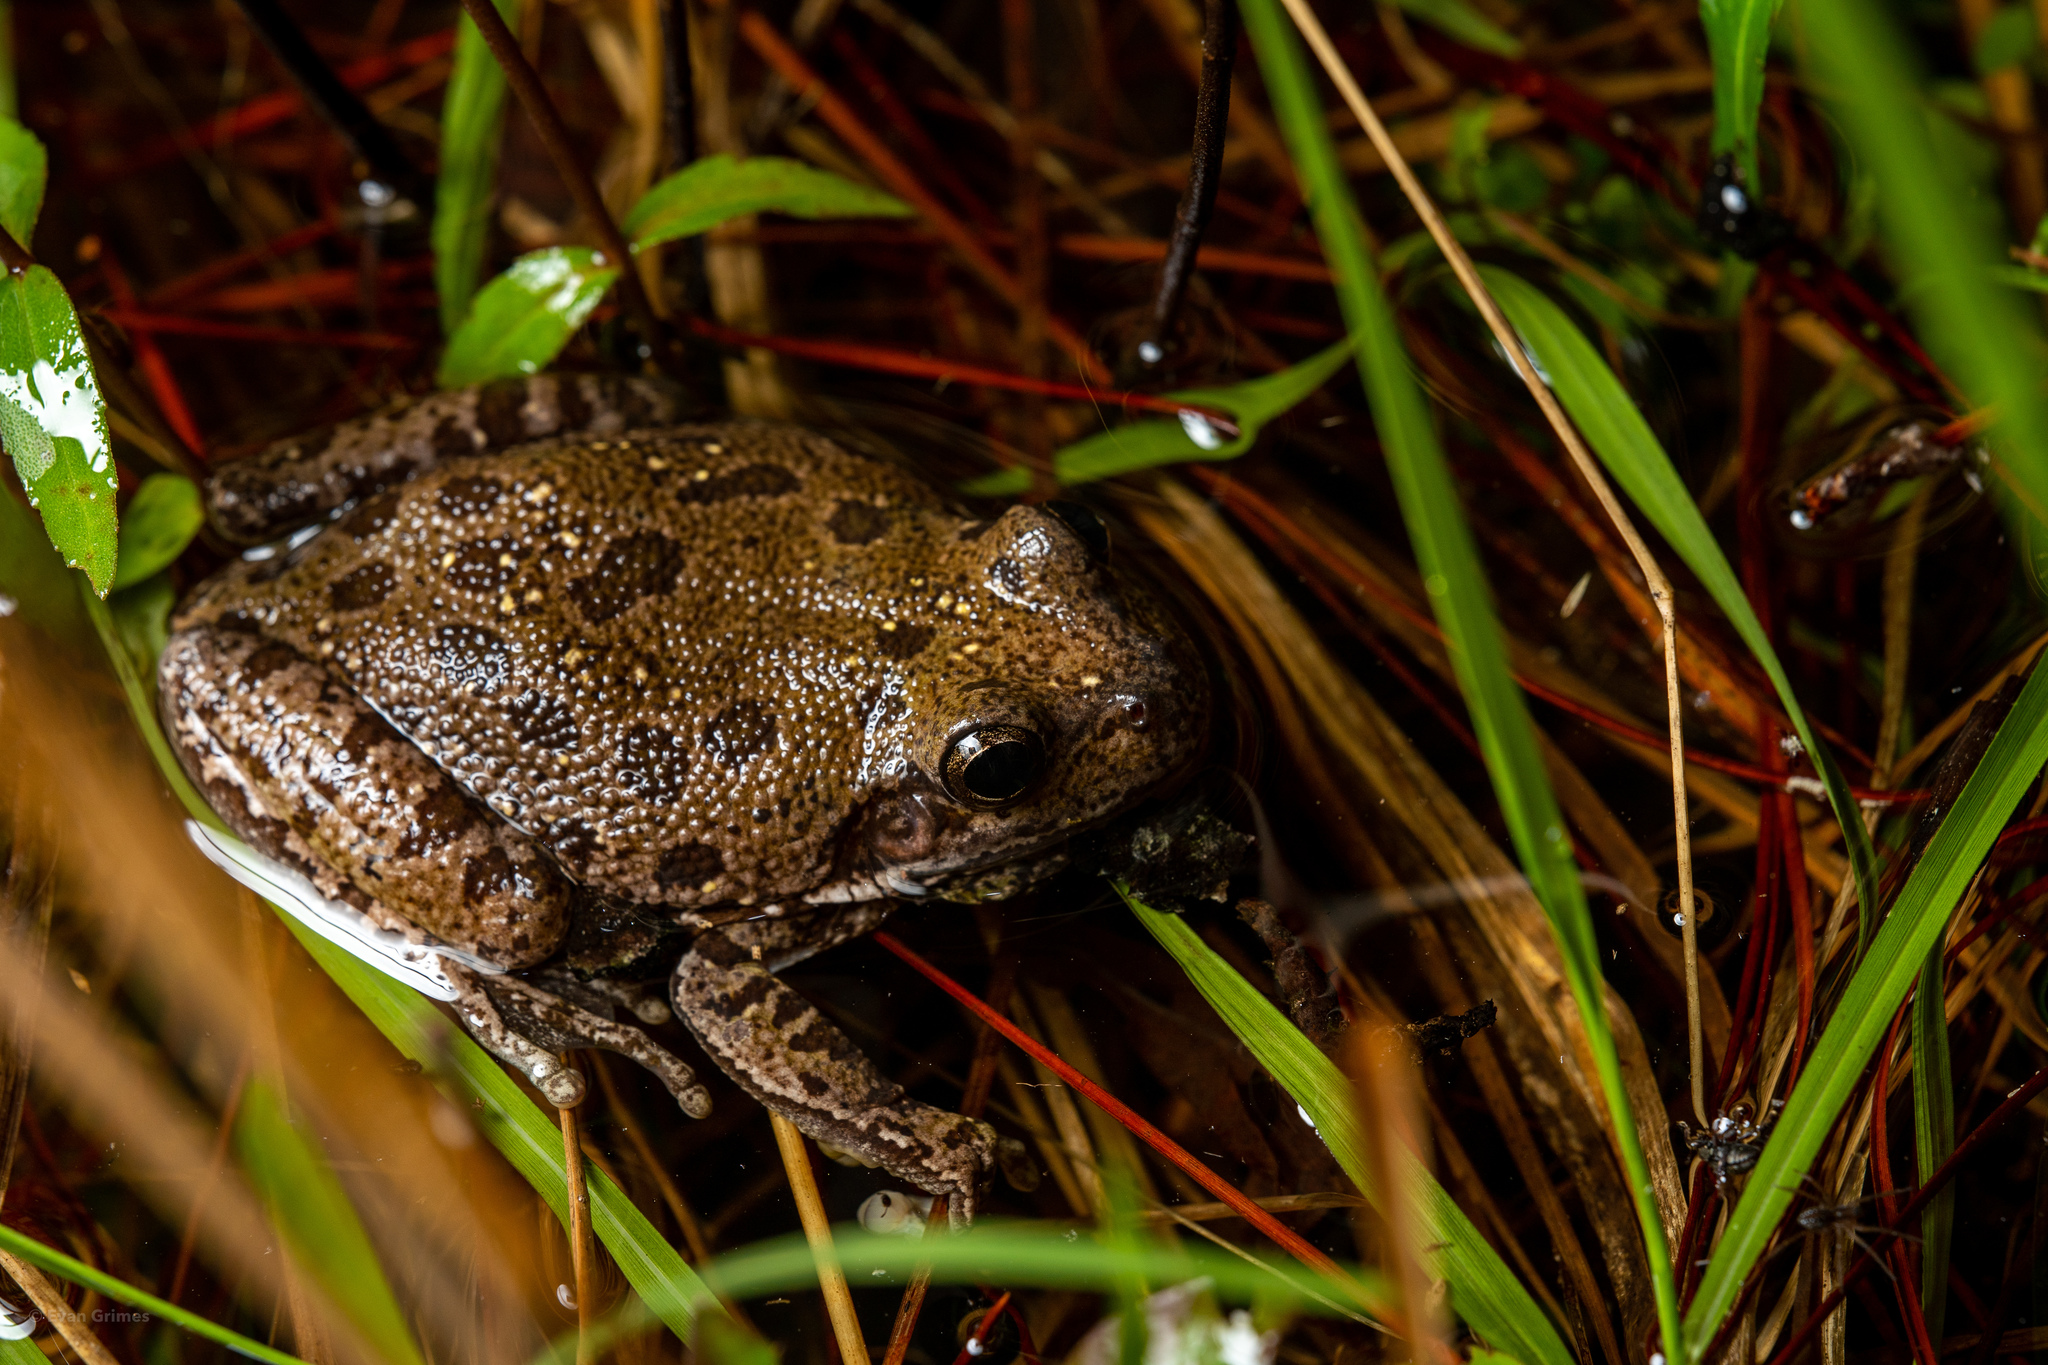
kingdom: Animalia
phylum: Chordata
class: Amphibia
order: Anura
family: Hylidae
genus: Dryophytes
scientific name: Dryophytes gratiosus
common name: Barking treefrog
